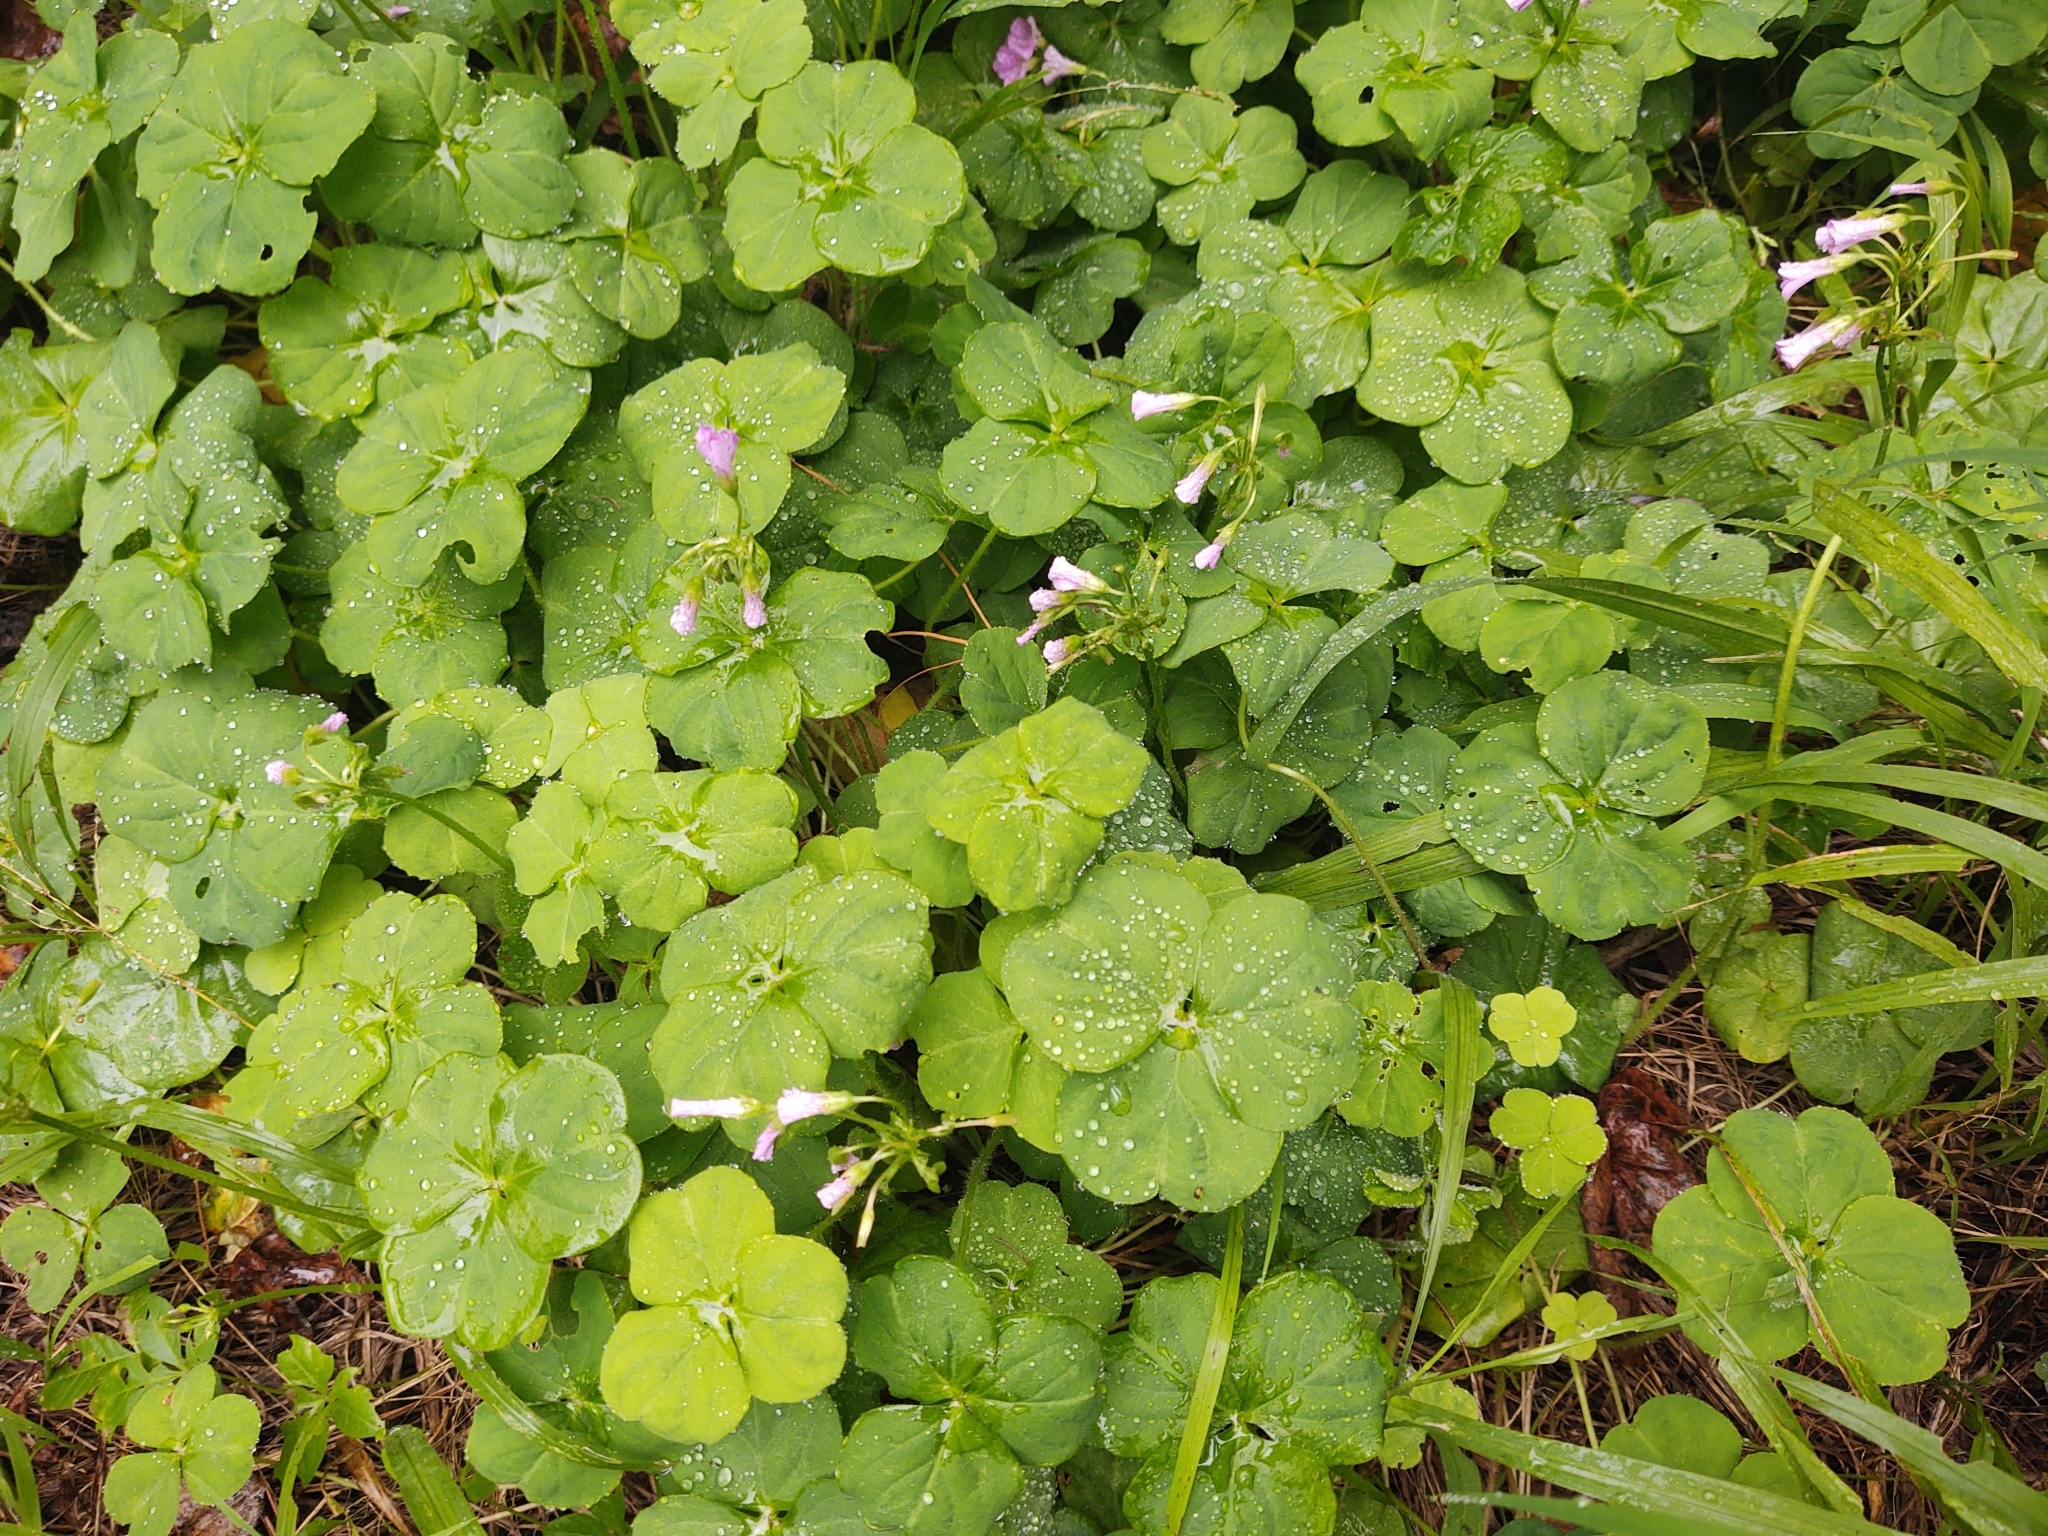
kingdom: Plantae
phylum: Tracheophyta
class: Magnoliopsida
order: Oxalidales
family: Oxalidaceae
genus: Oxalis
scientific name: Oxalis debilis
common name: Large-flowered pink-sorrel
